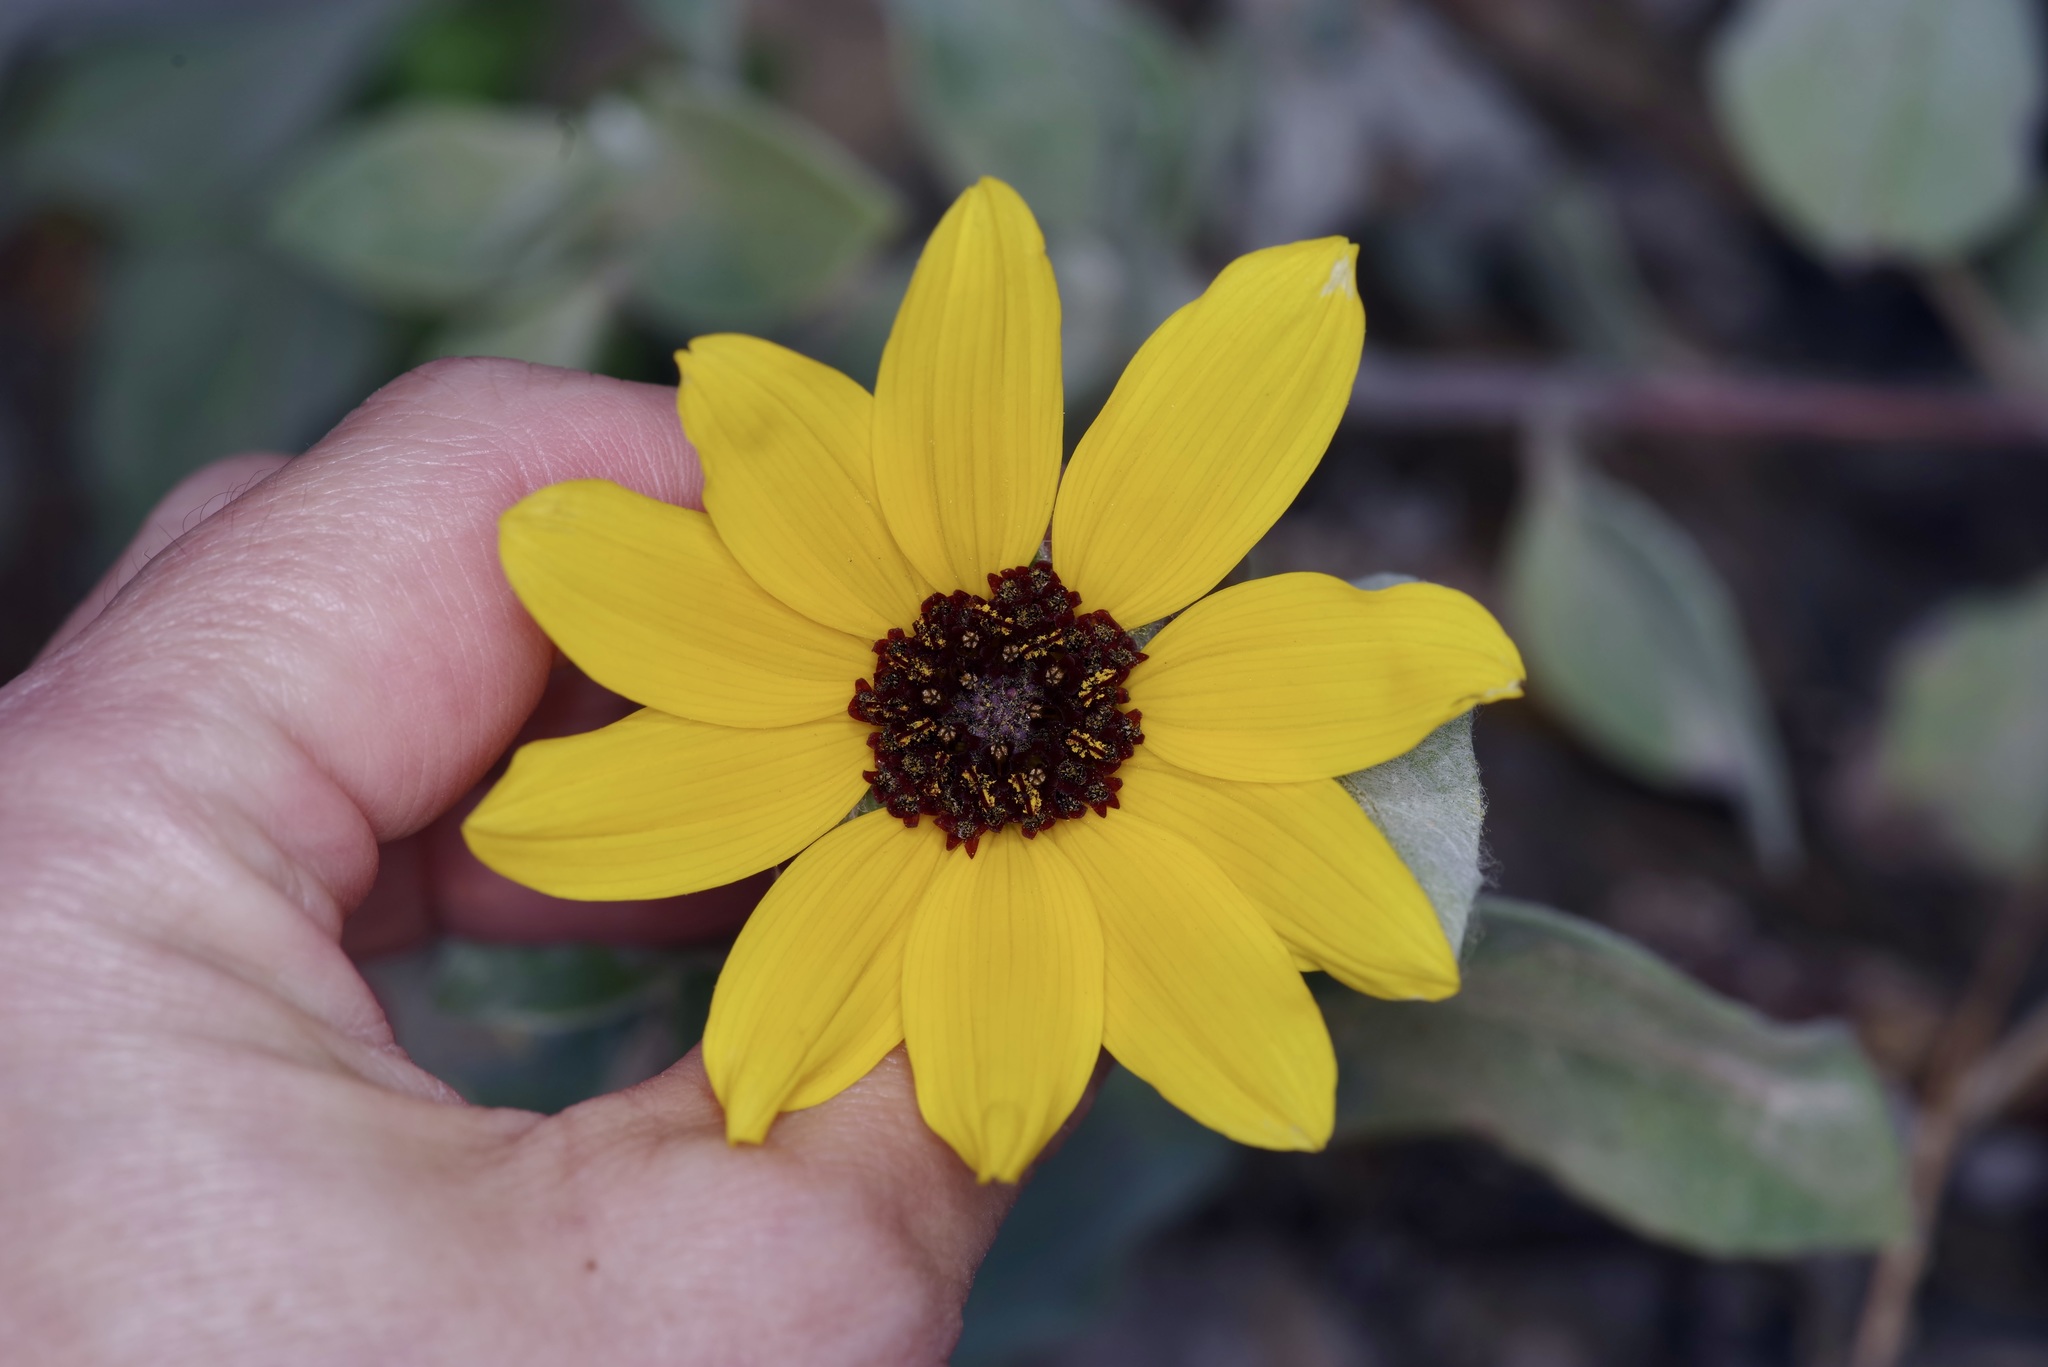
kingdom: Plantae
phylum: Tracheophyta
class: Magnoliopsida
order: Asterales
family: Asteraceae
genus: Helianthus
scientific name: Helianthus argophyllus
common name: Silverleaf sunflower
